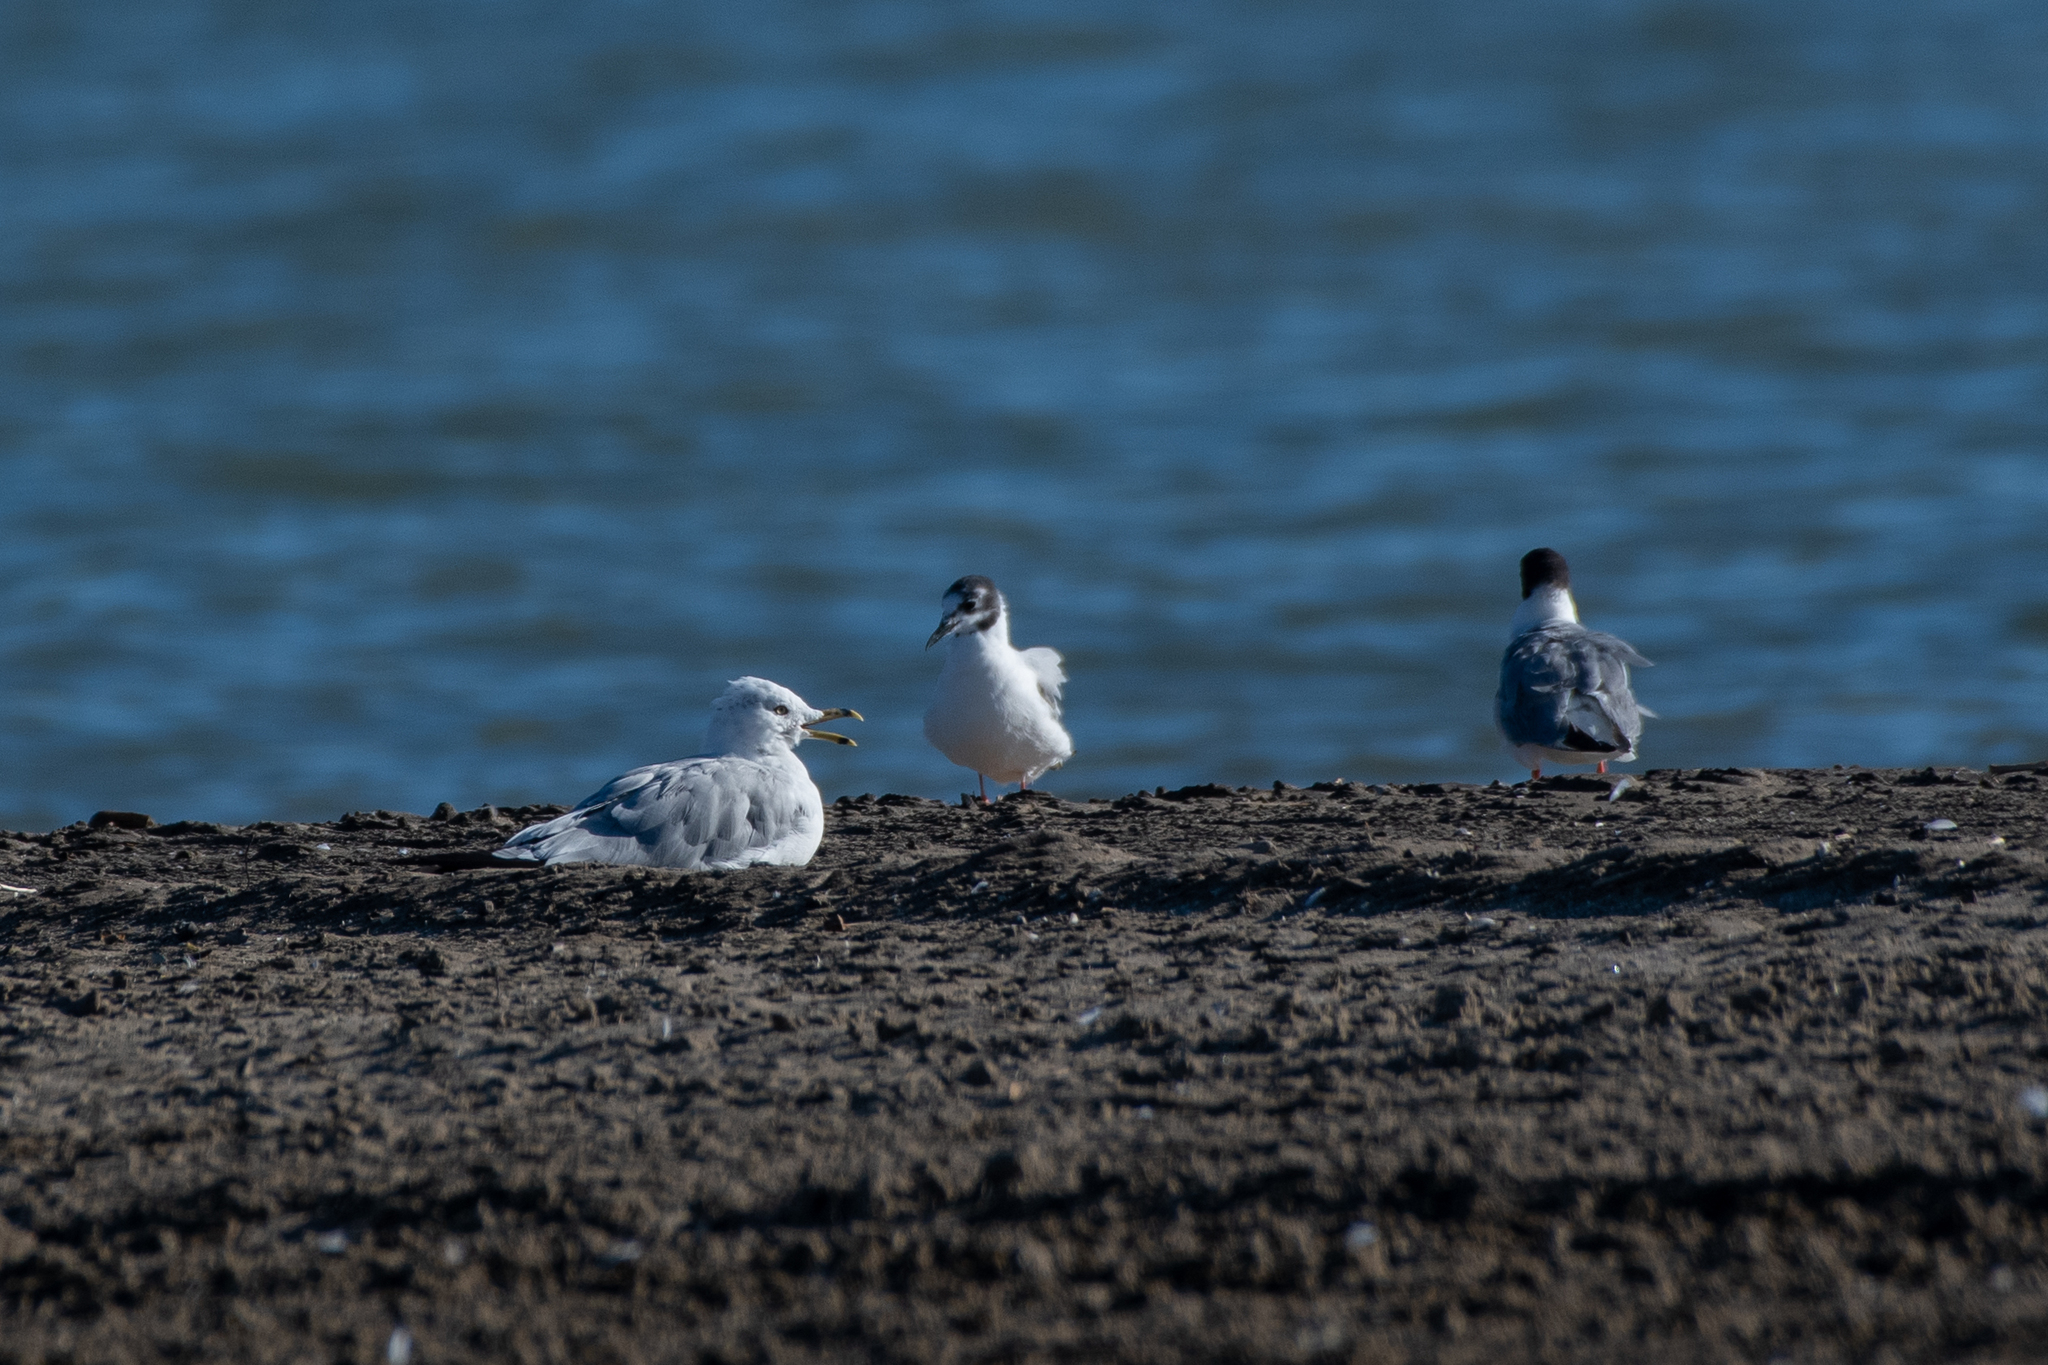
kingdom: Animalia
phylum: Chordata
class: Aves
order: Charadriiformes
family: Laridae
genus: Larus
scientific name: Larus delawarensis
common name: Ring-billed gull
